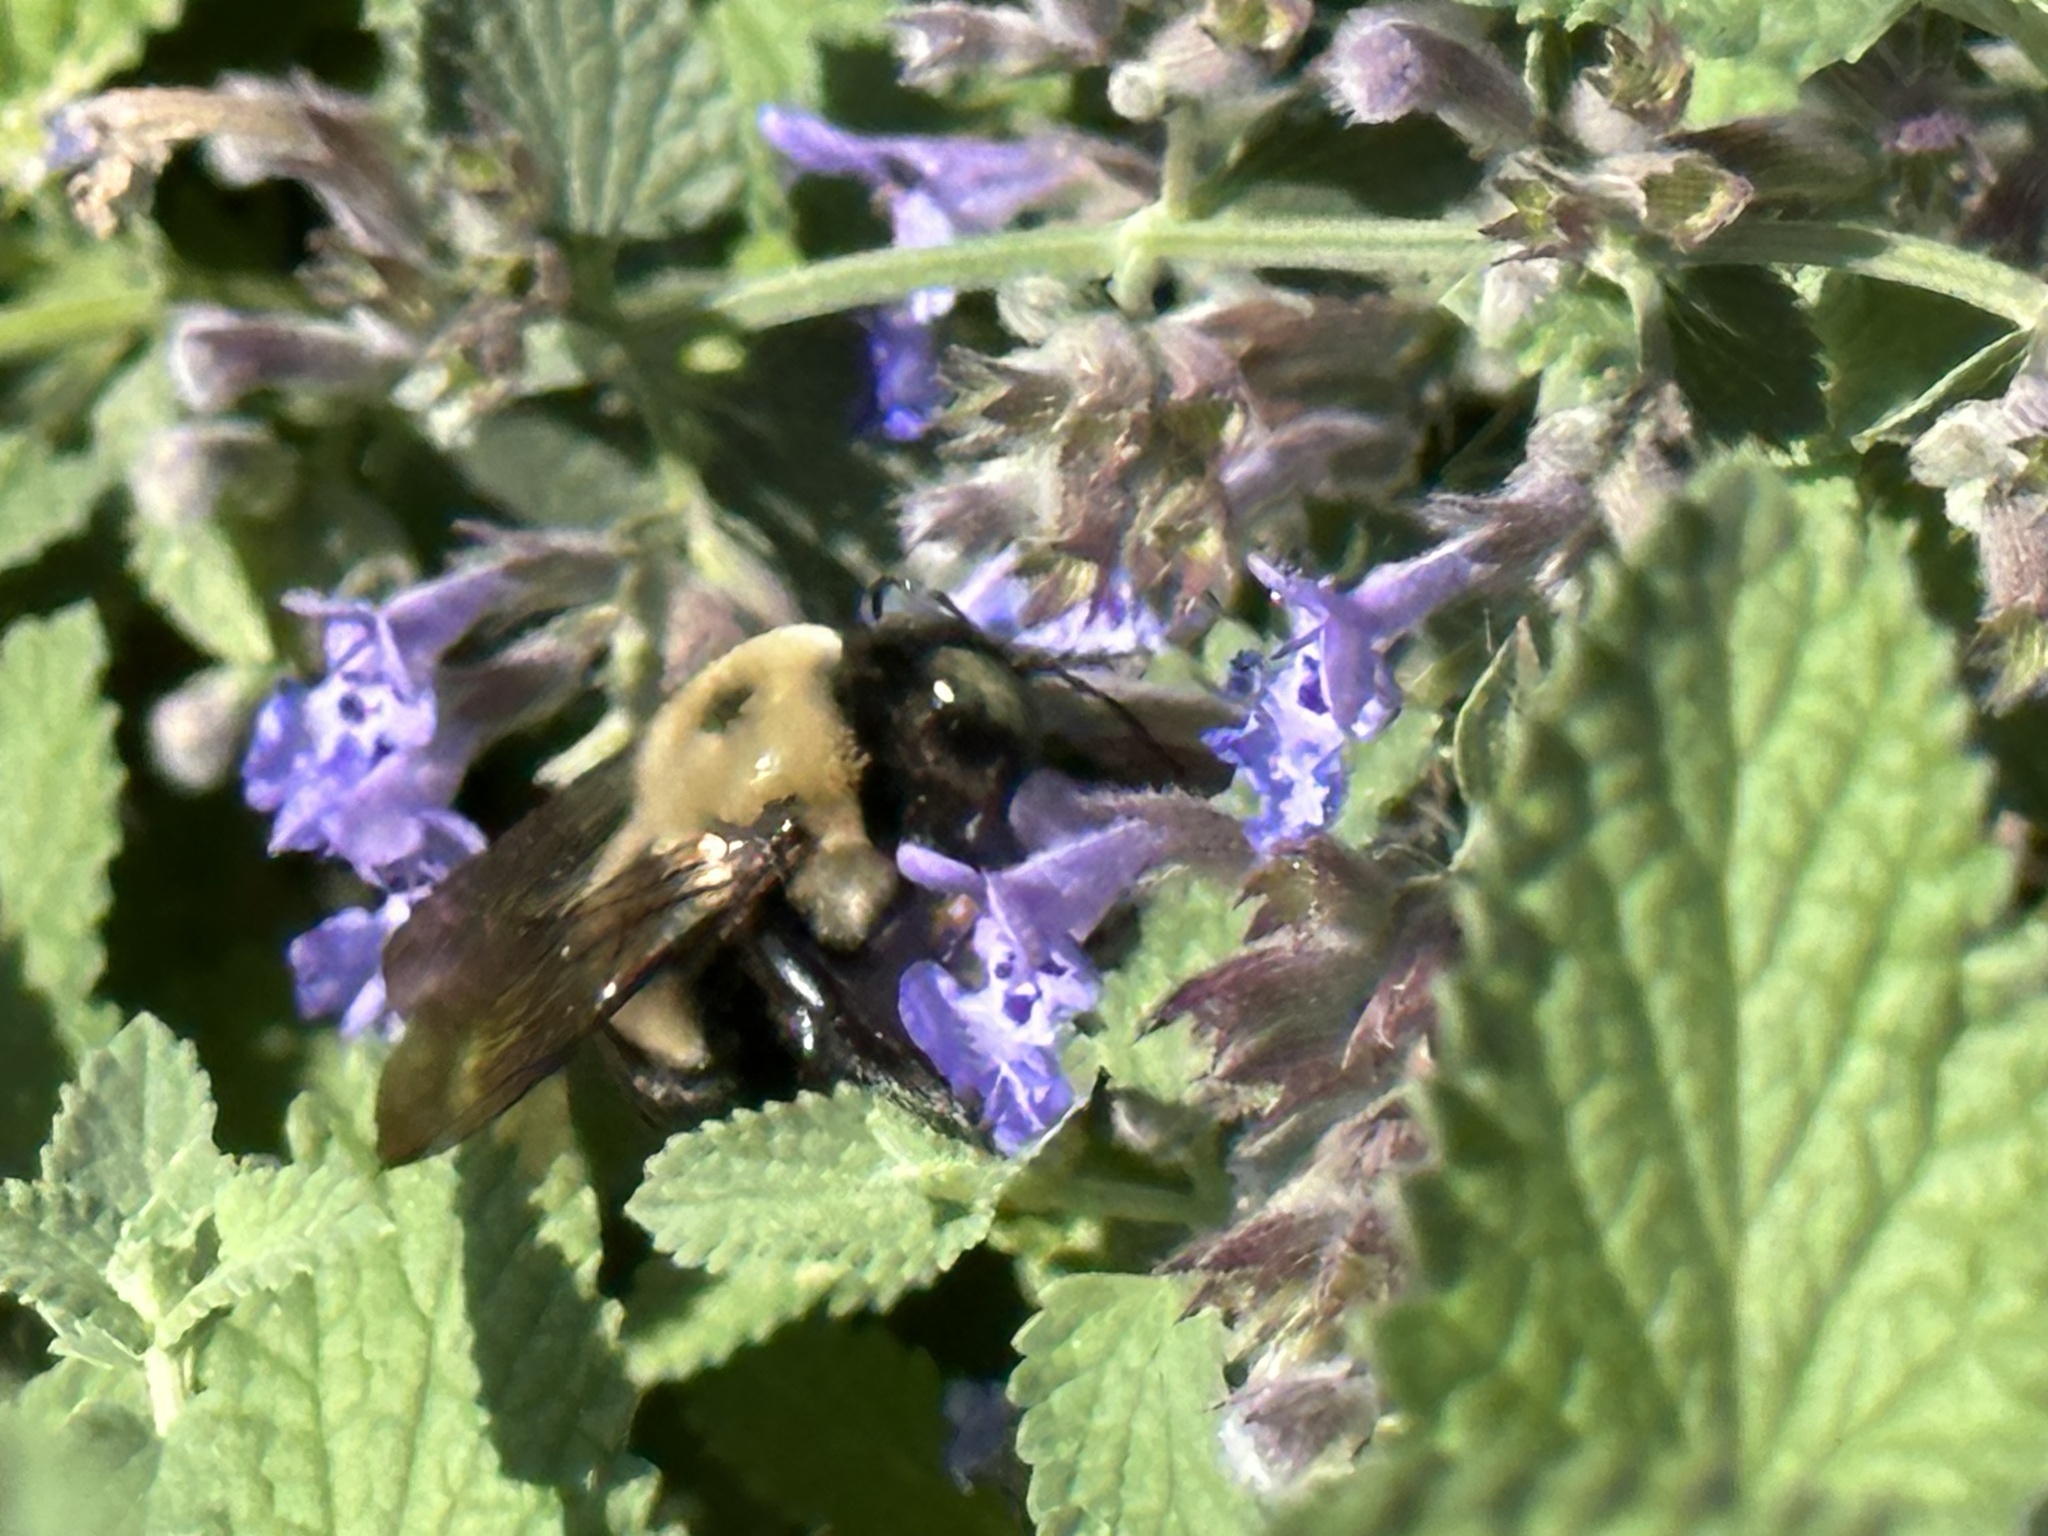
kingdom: Animalia
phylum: Arthropoda
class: Insecta
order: Hymenoptera
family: Apidae
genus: Xylocopa
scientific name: Xylocopa virginica
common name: Carpenter bee
